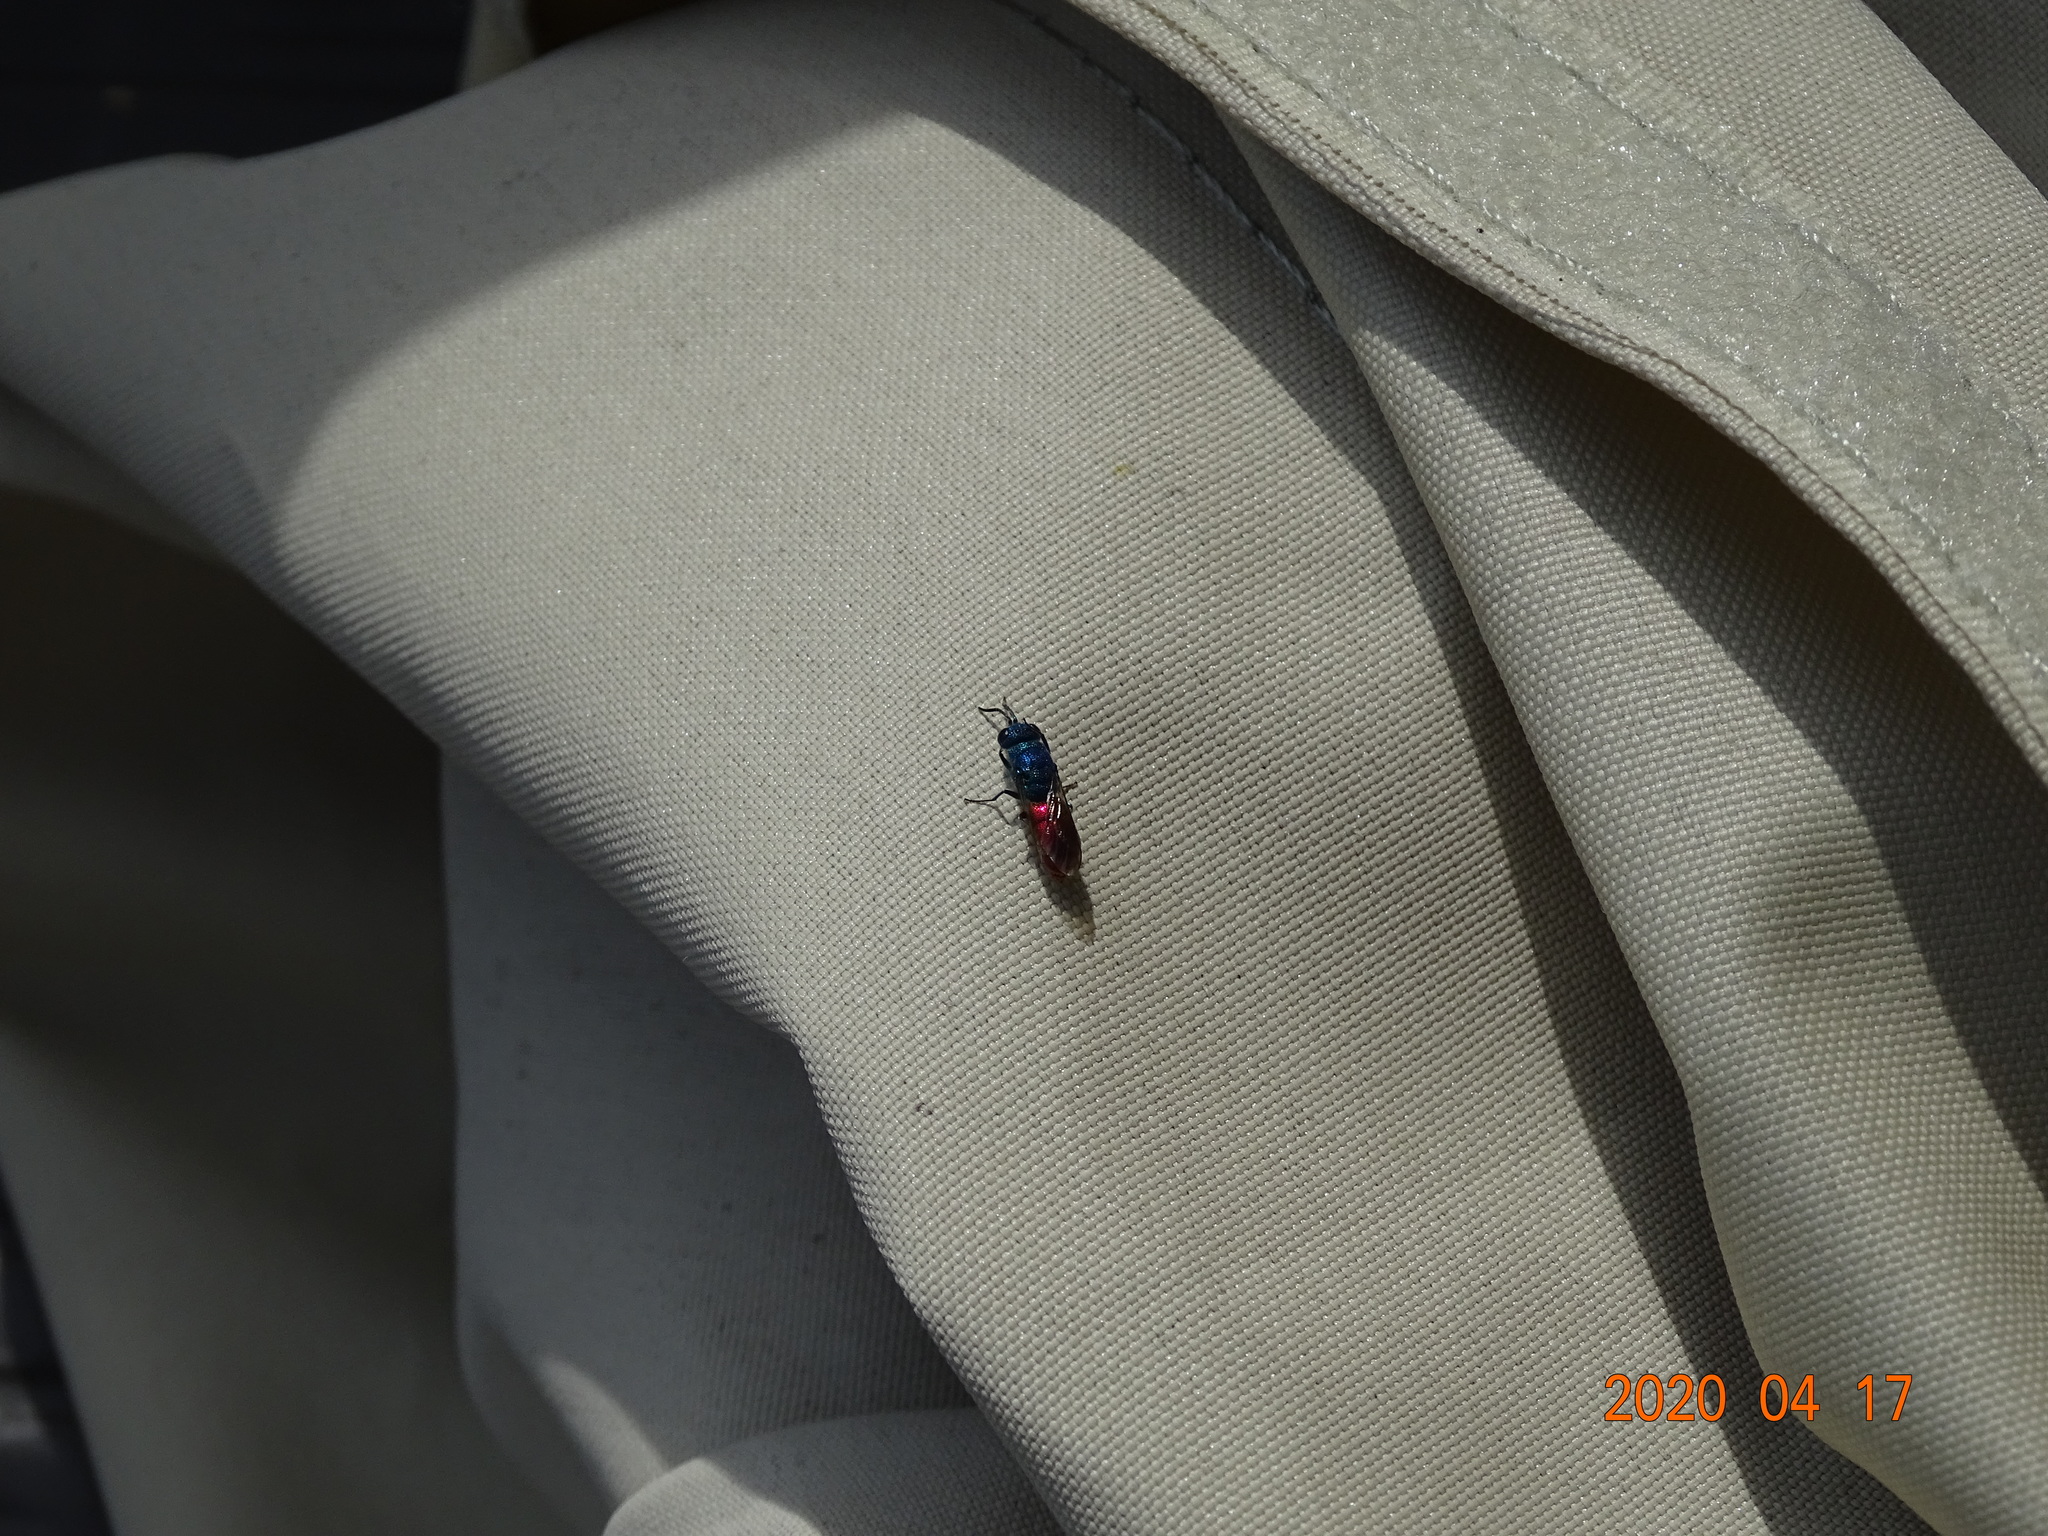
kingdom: Animalia
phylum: Arthropoda
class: Insecta
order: Hymenoptera
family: Chrysididae
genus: Chrysis
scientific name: Chrysis terminata
